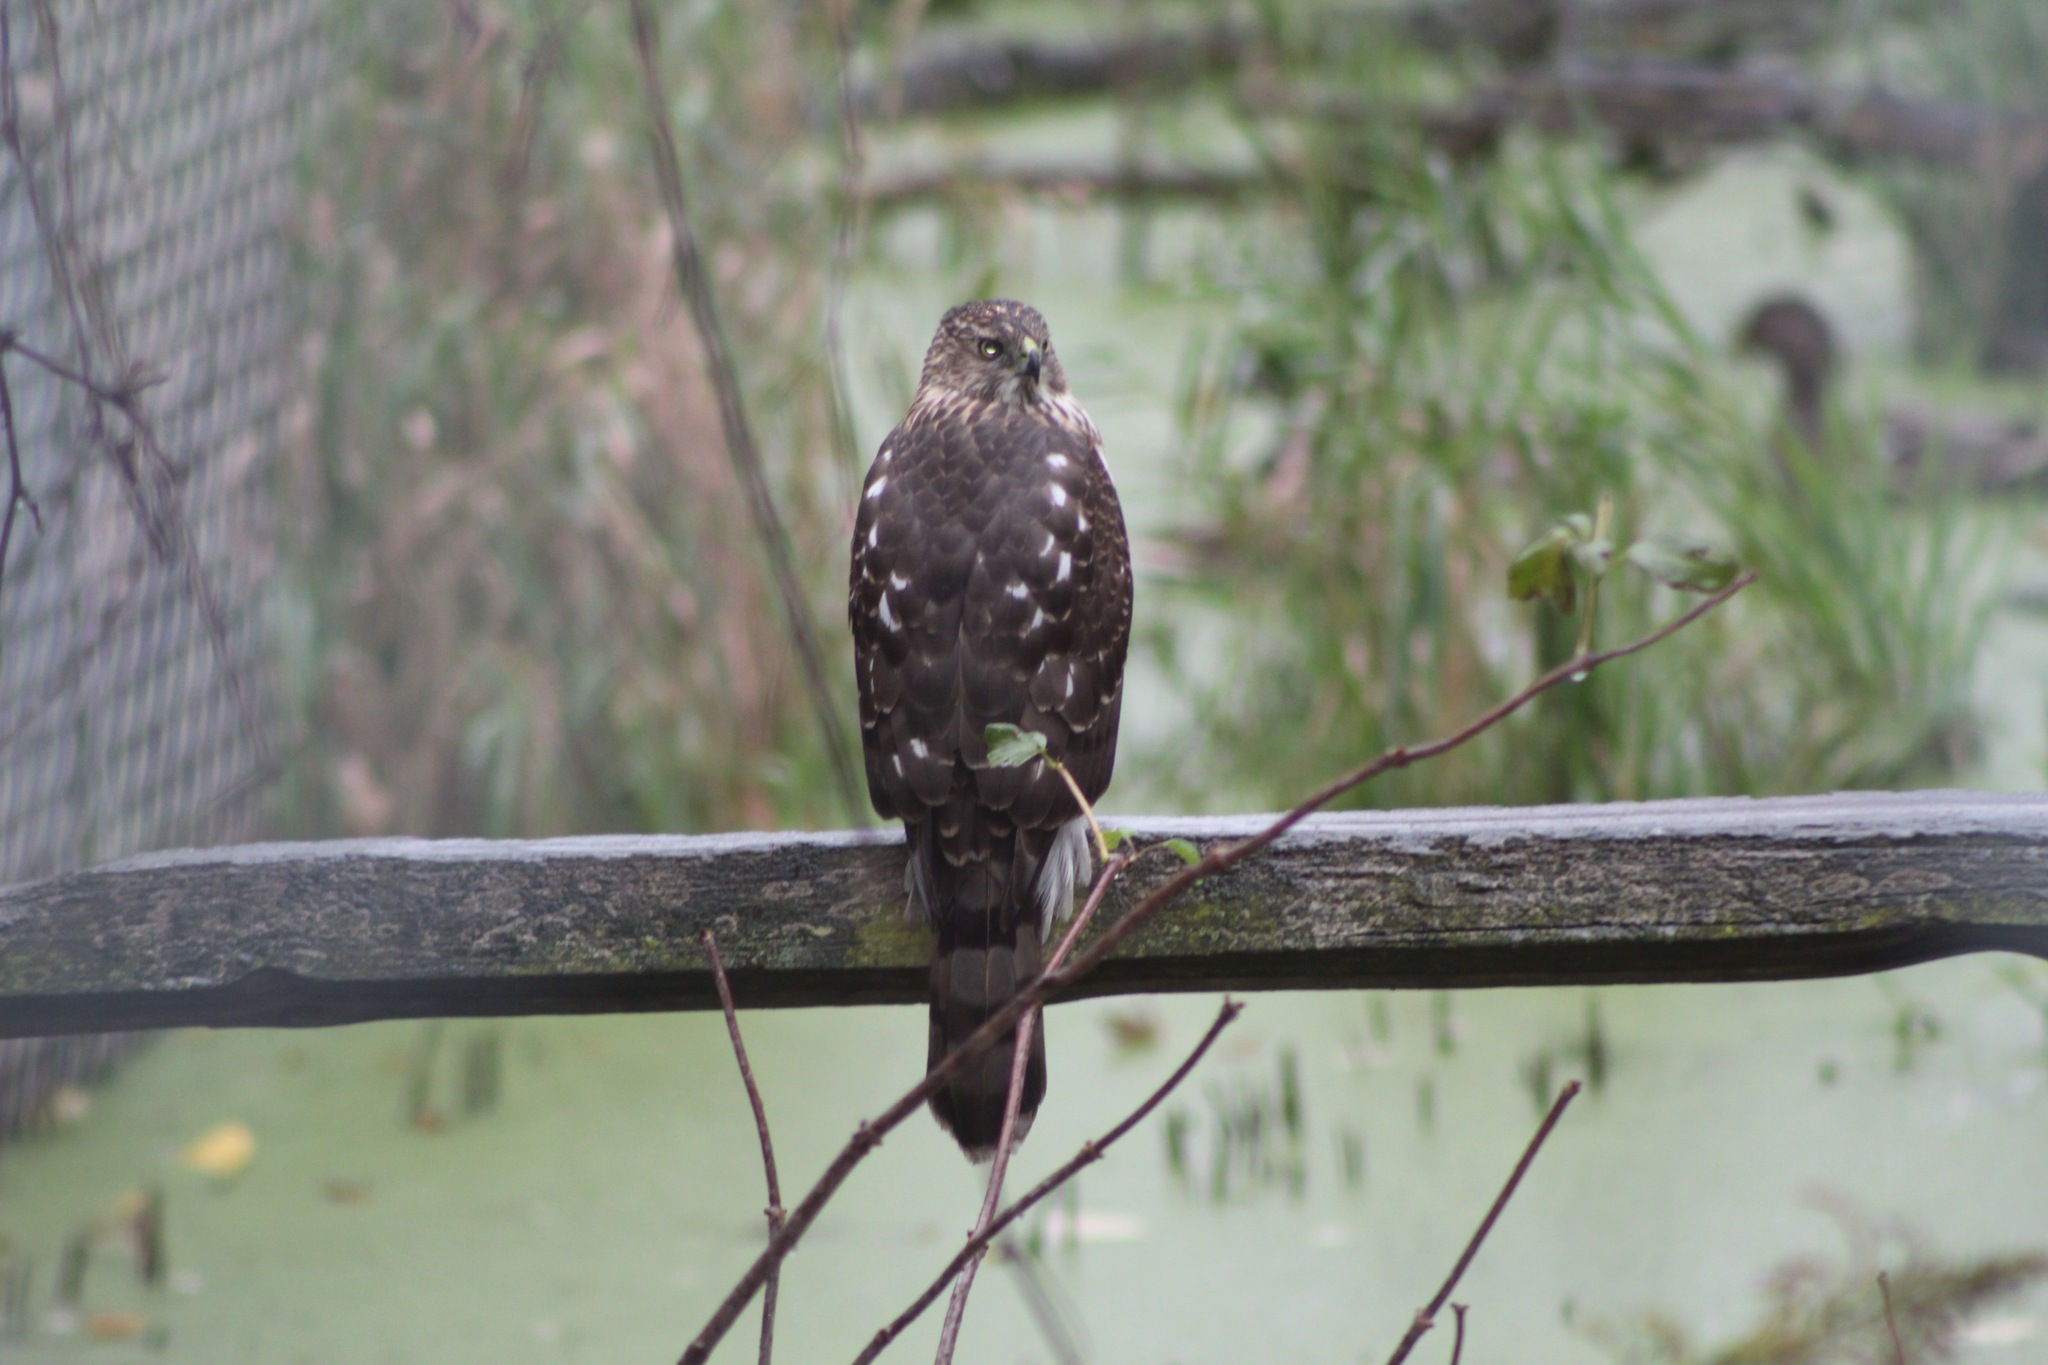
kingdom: Animalia
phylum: Chordata
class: Aves
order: Accipitriformes
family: Accipitridae
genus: Accipiter
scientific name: Accipiter cooperii
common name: Cooper's hawk
